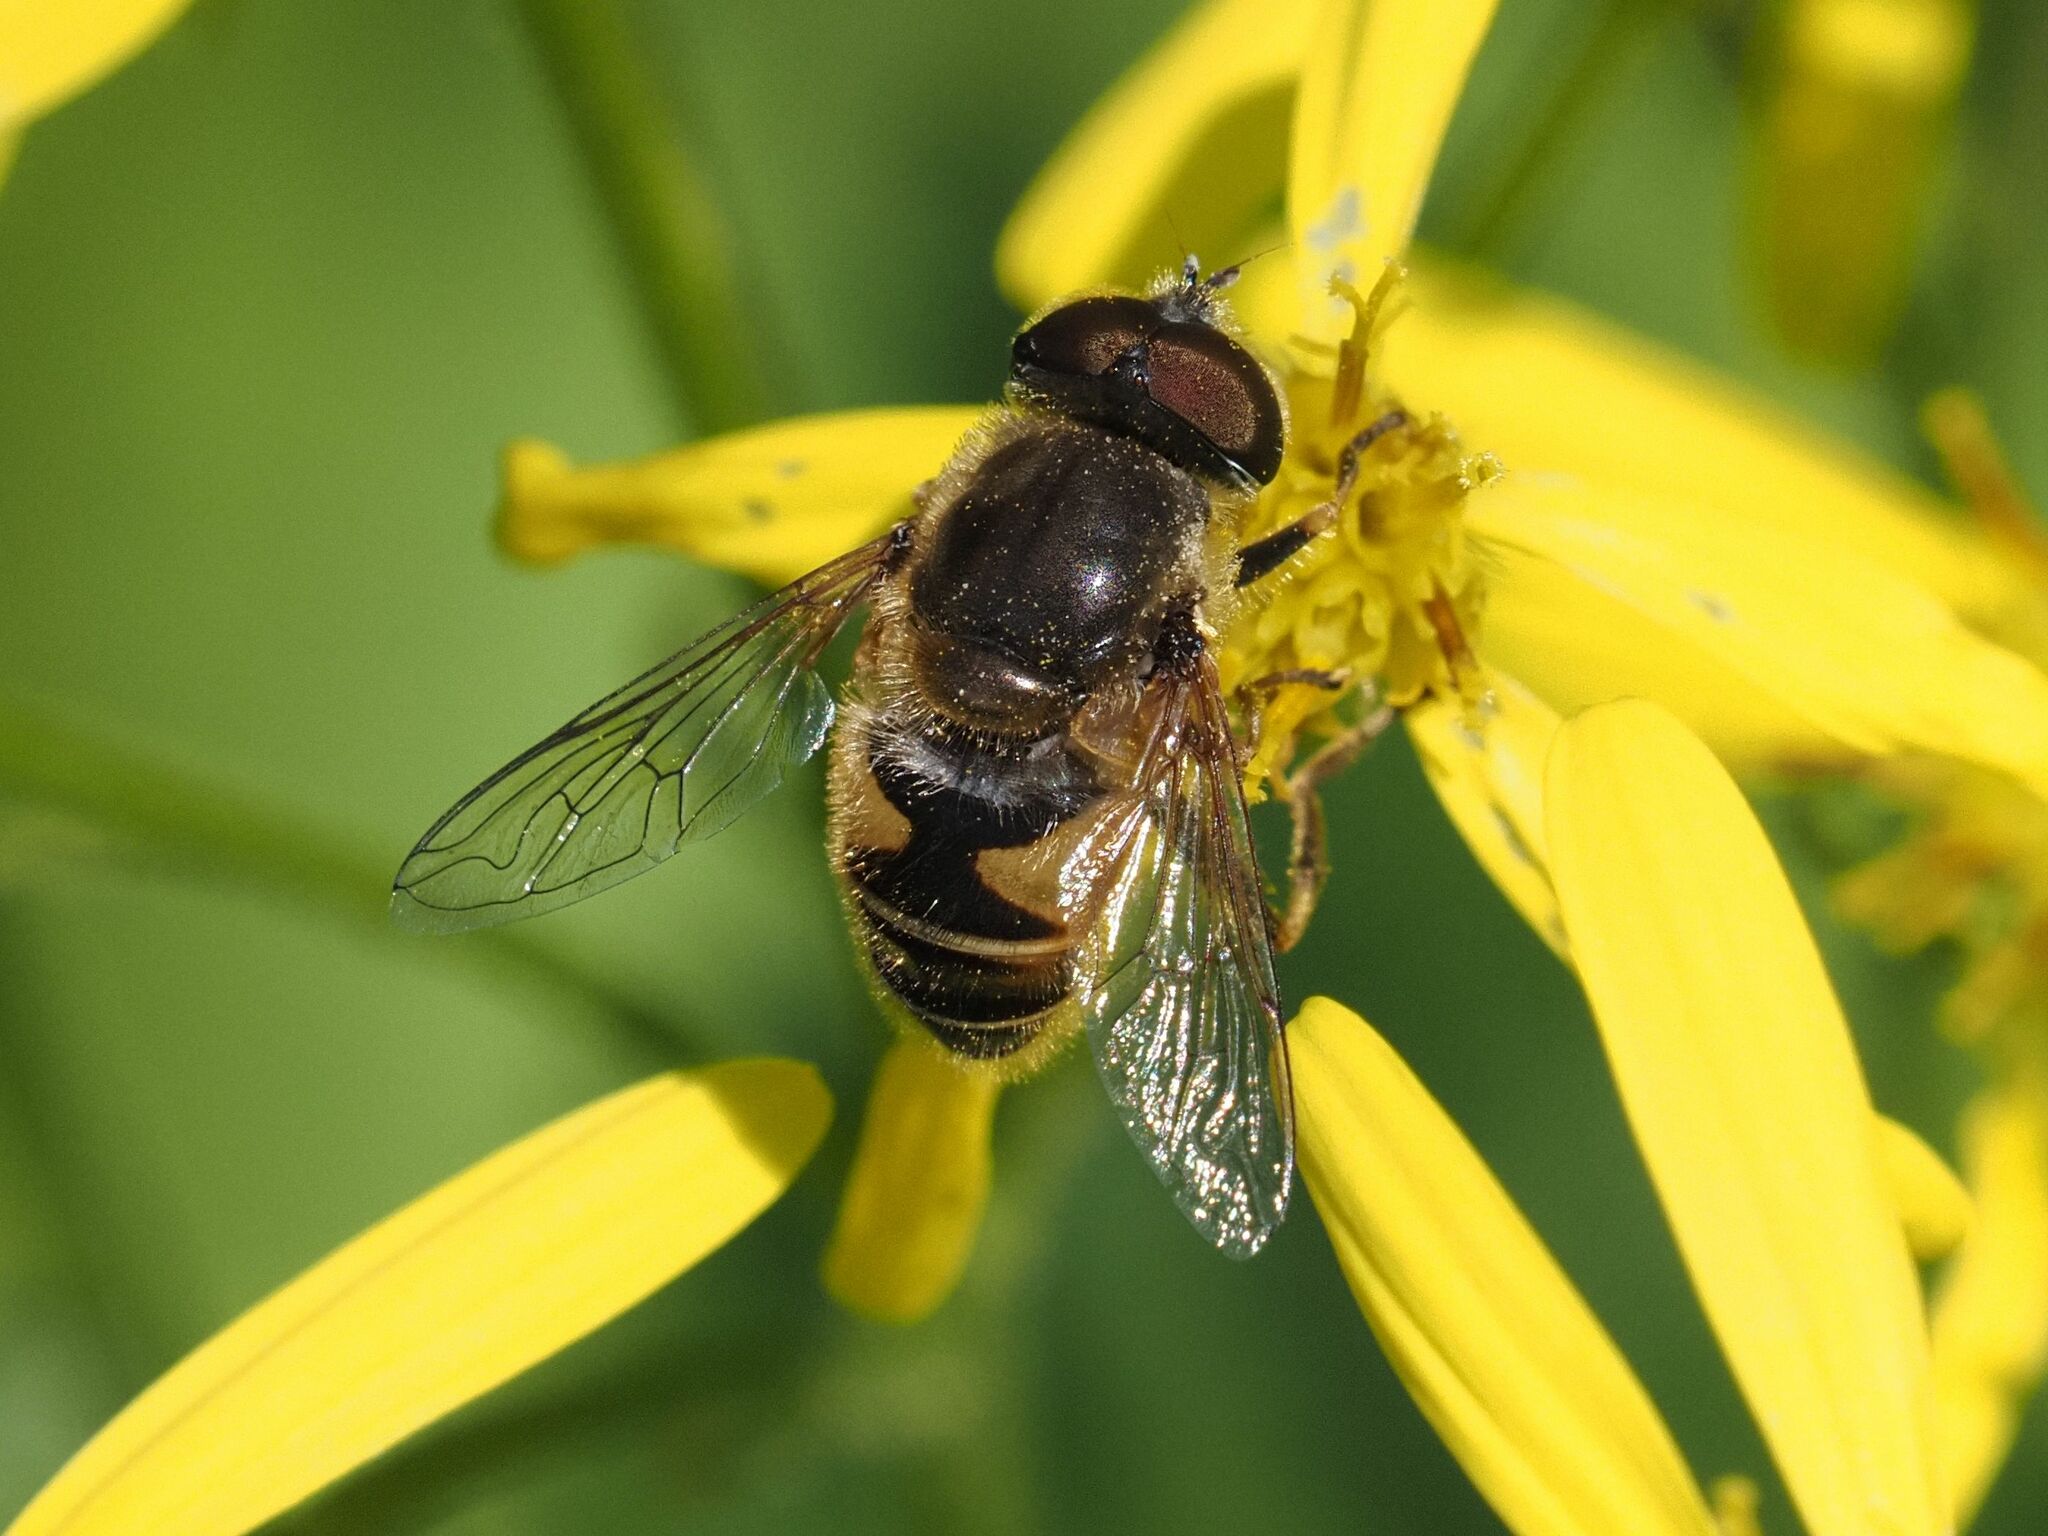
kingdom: Animalia
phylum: Arthropoda
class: Insecta
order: Diptera
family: Syrphidae
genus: Eristalis
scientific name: Eristalis nemorum
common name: Orange-spined drone fly
